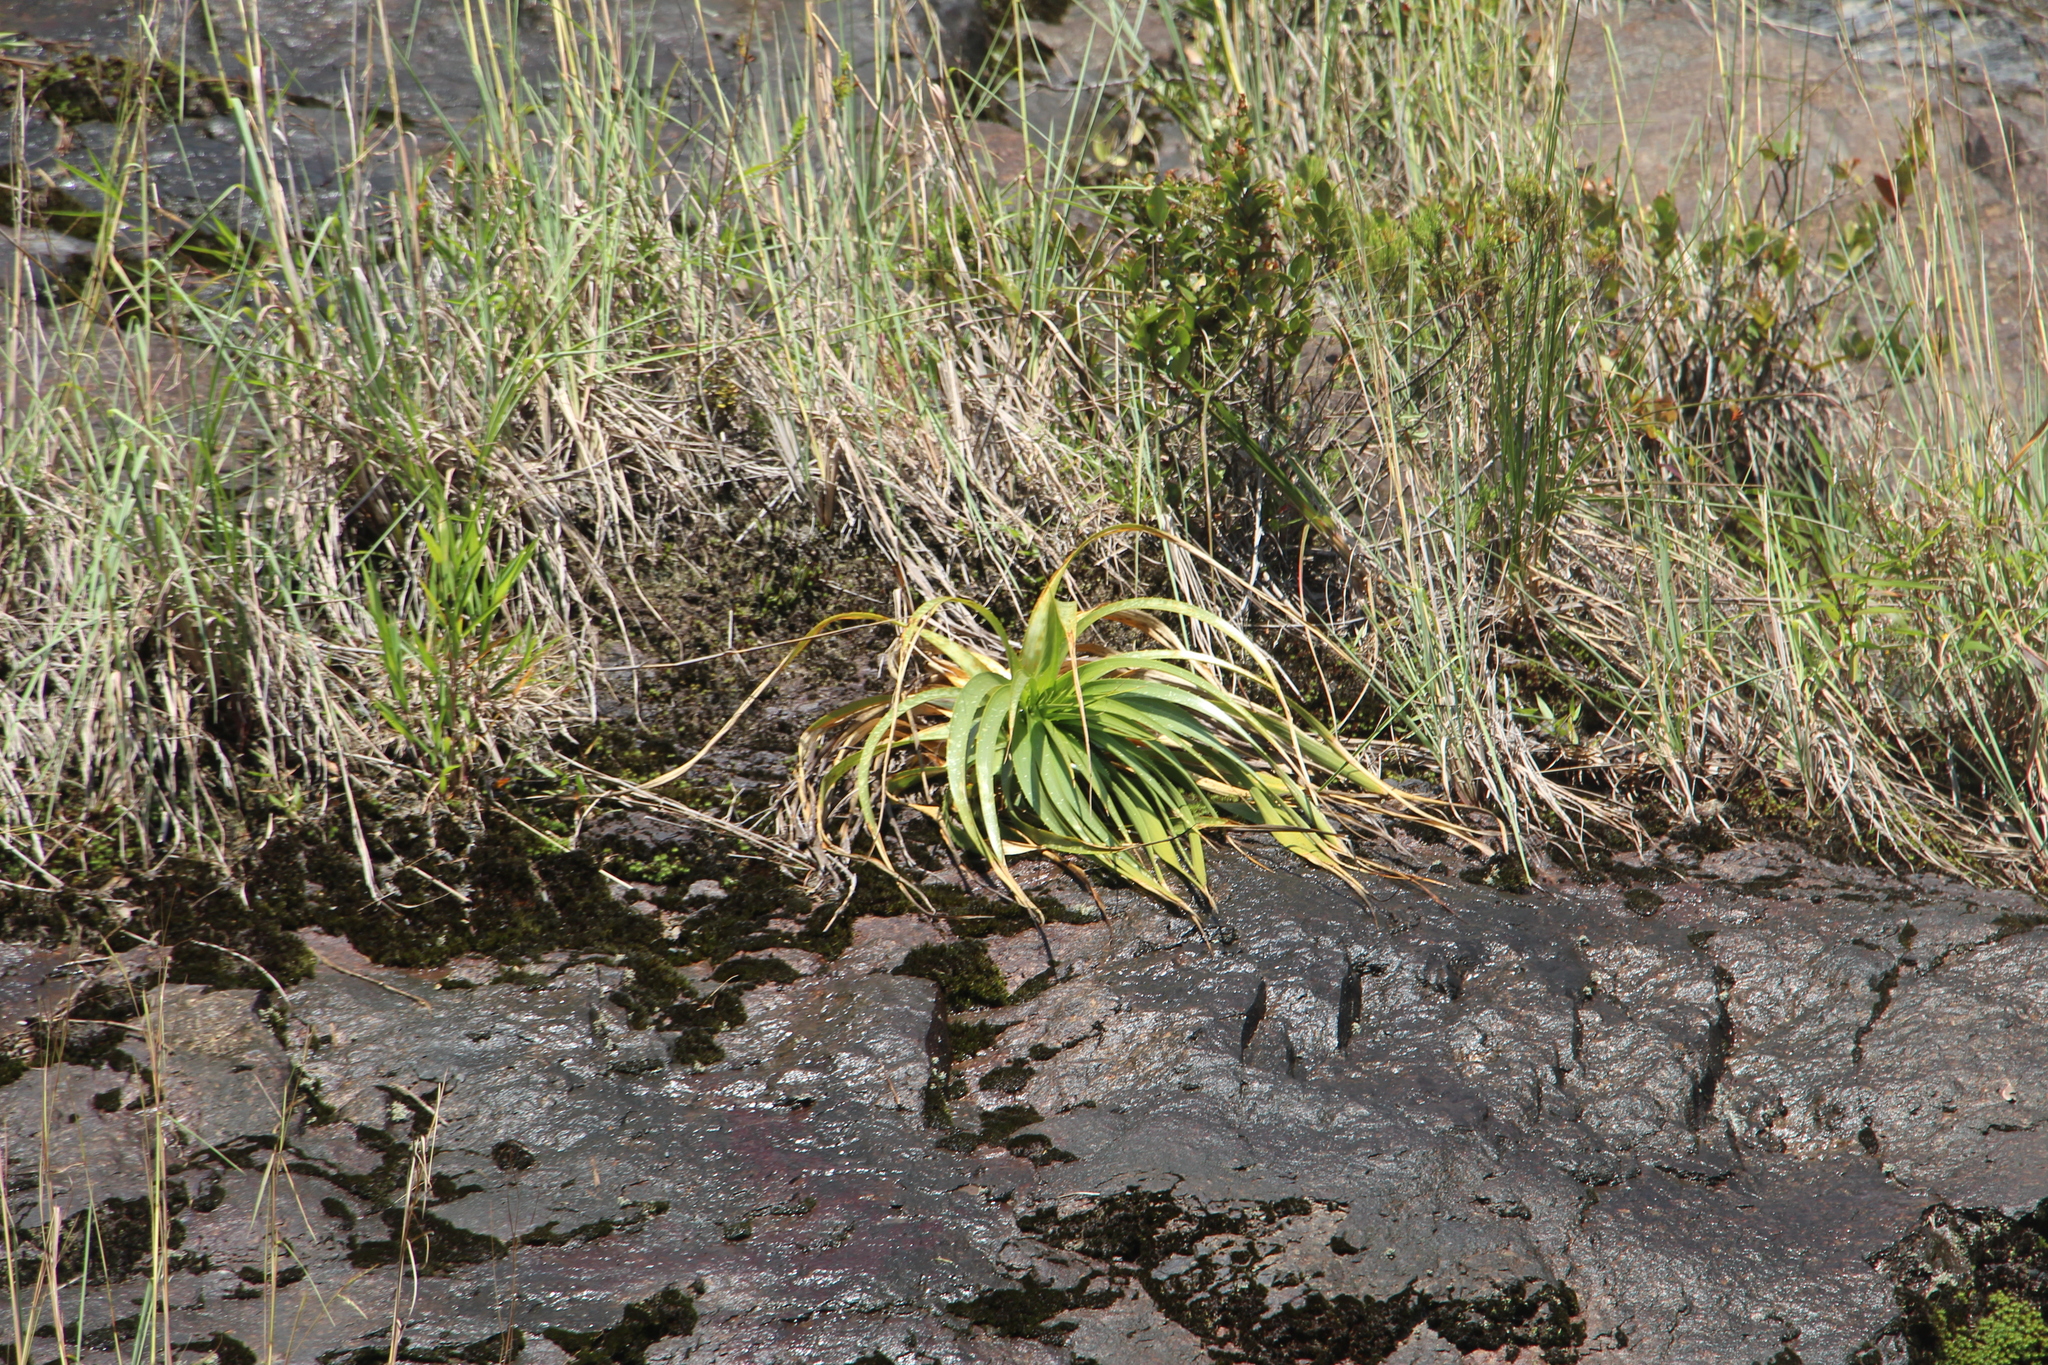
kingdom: Plantae
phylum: Tracheophyta
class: Liliopsida
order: Poales
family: Bromeliaceae
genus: Puya
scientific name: Puya
